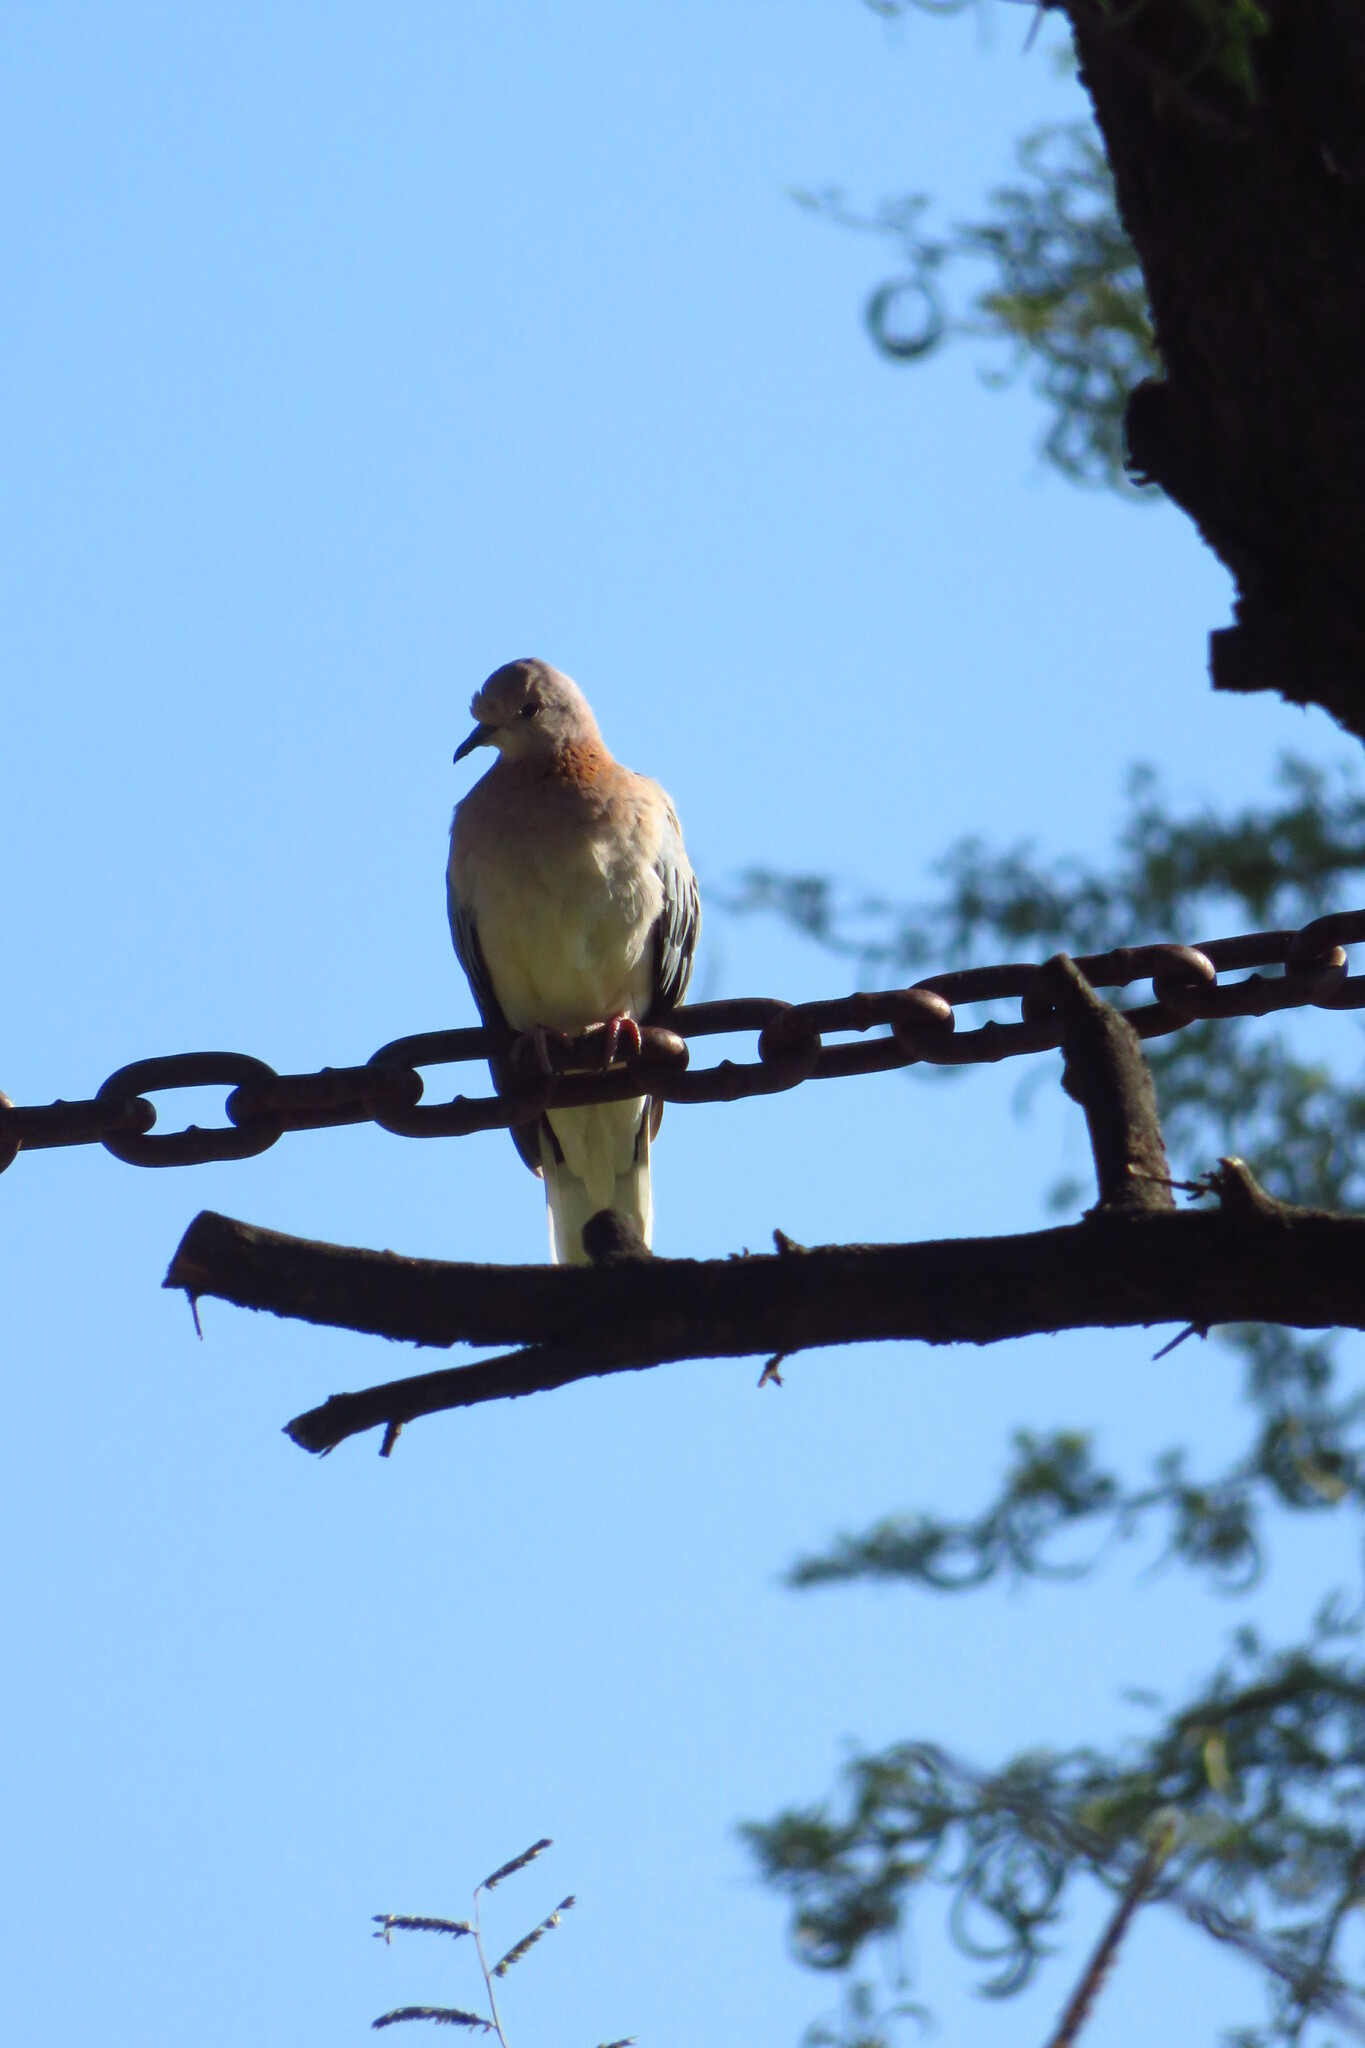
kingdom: Animalia
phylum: Chordata
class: Aves
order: Columbiformes
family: Columbidae
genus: Spilopelia
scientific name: Spilopelia senegalensis
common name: Laughing dove
